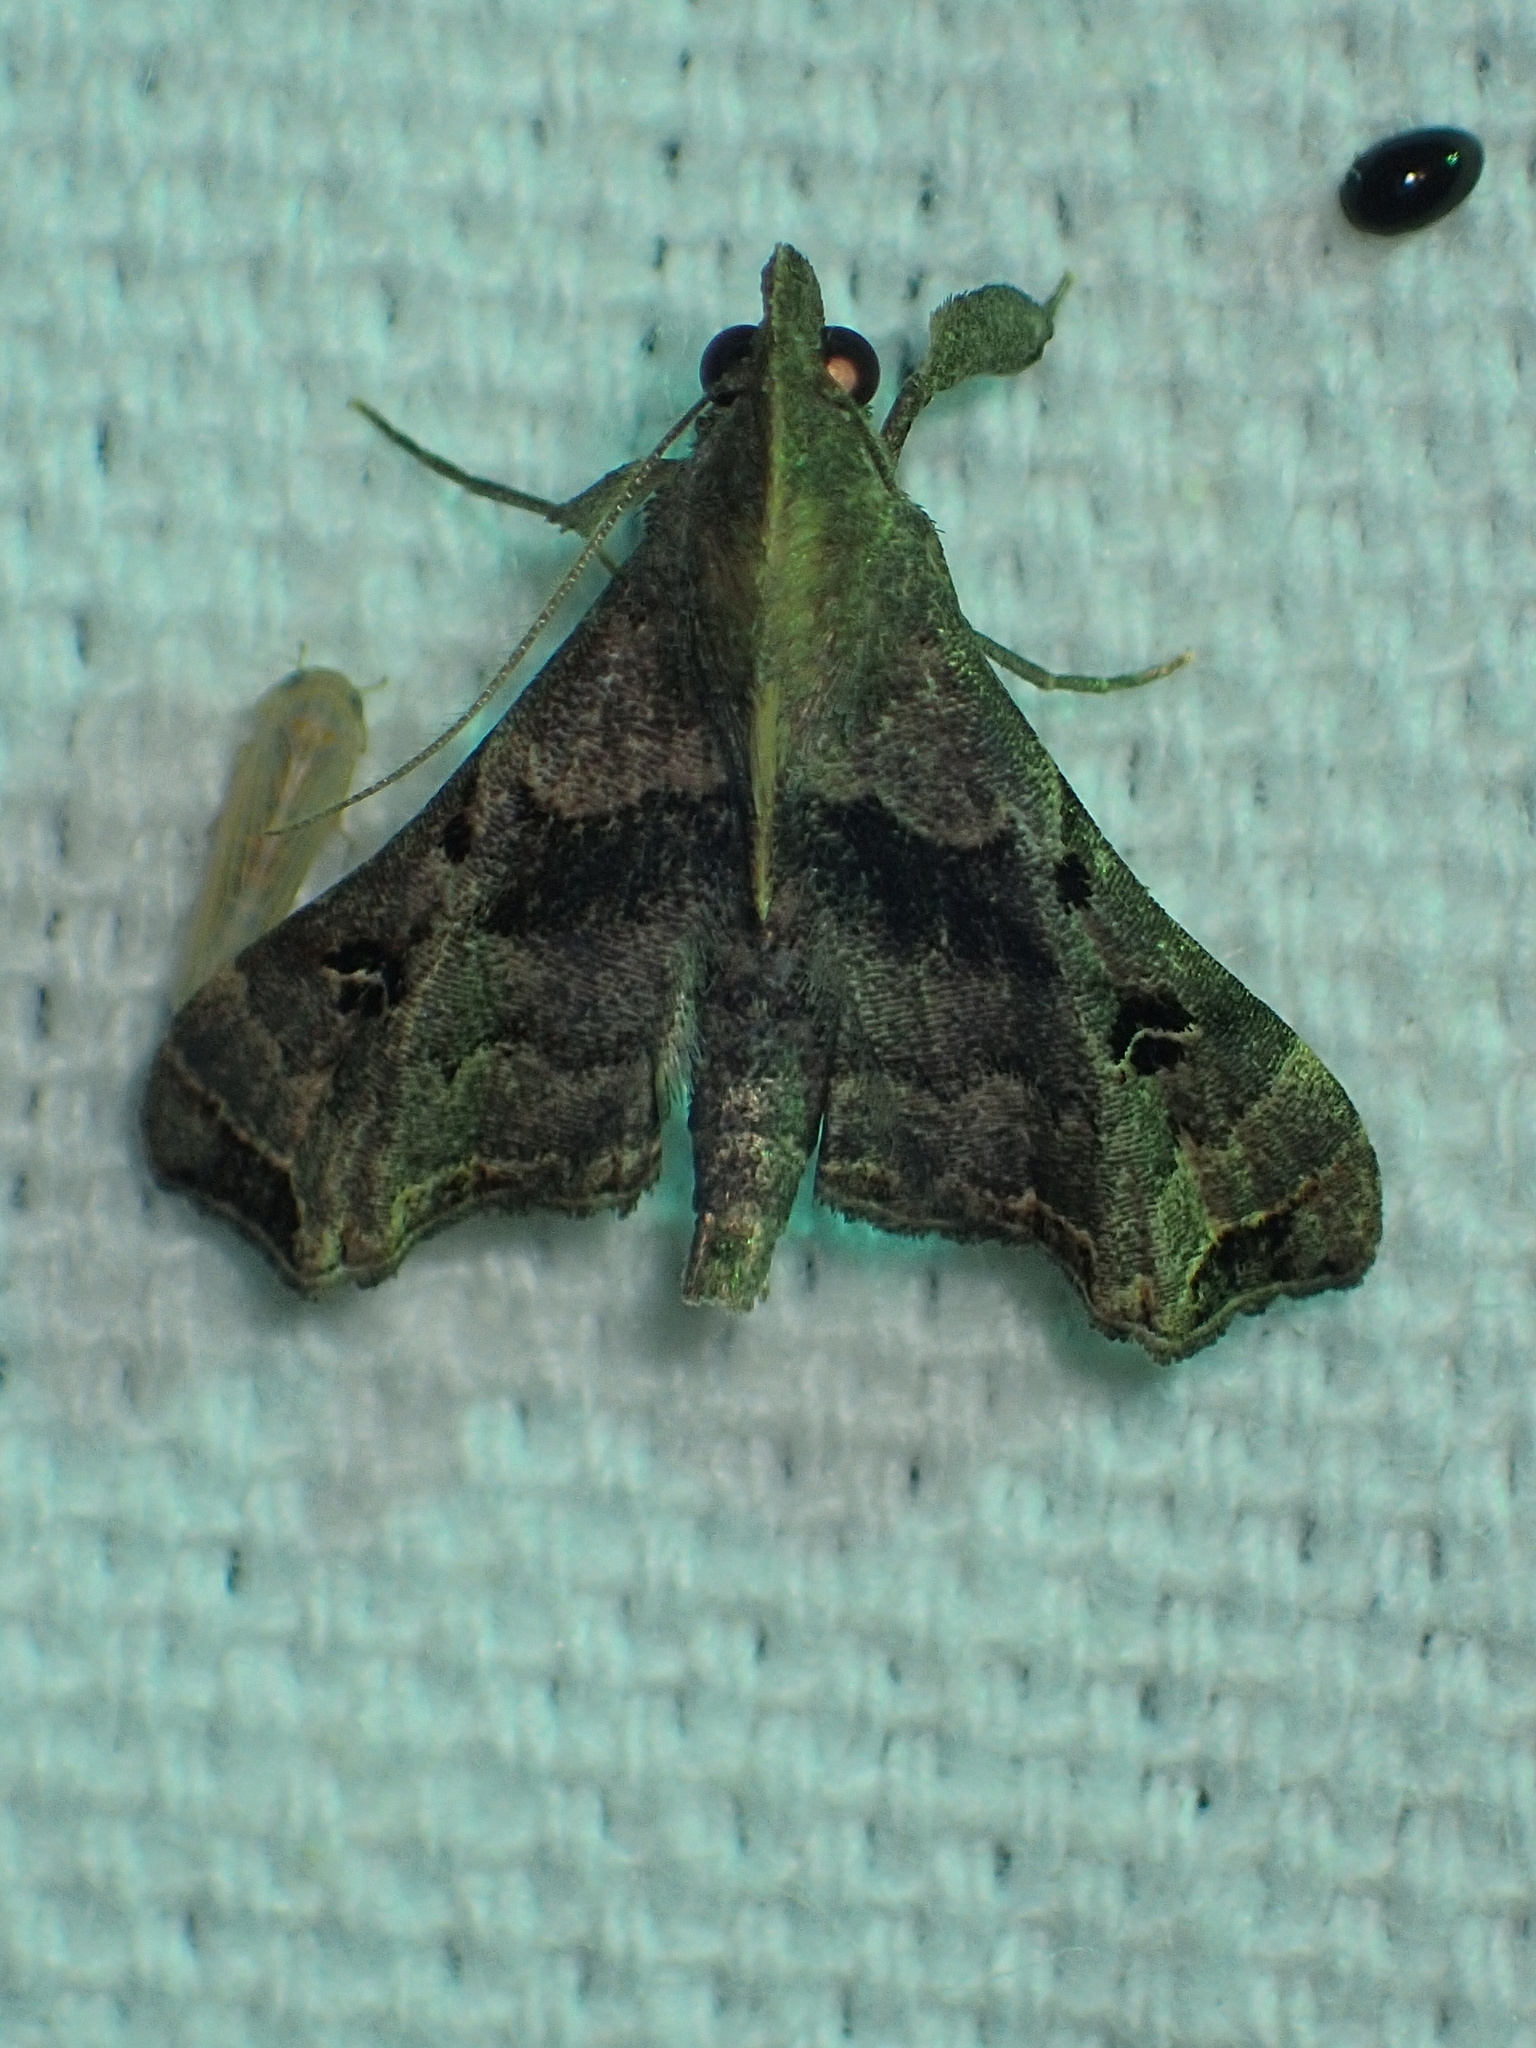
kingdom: Animalia
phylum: Arthropoda
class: Insecta
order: Lepidoptera
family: Erebidae
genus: Palthis
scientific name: Palthis asopialis
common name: Faint-spotted palthis moth
